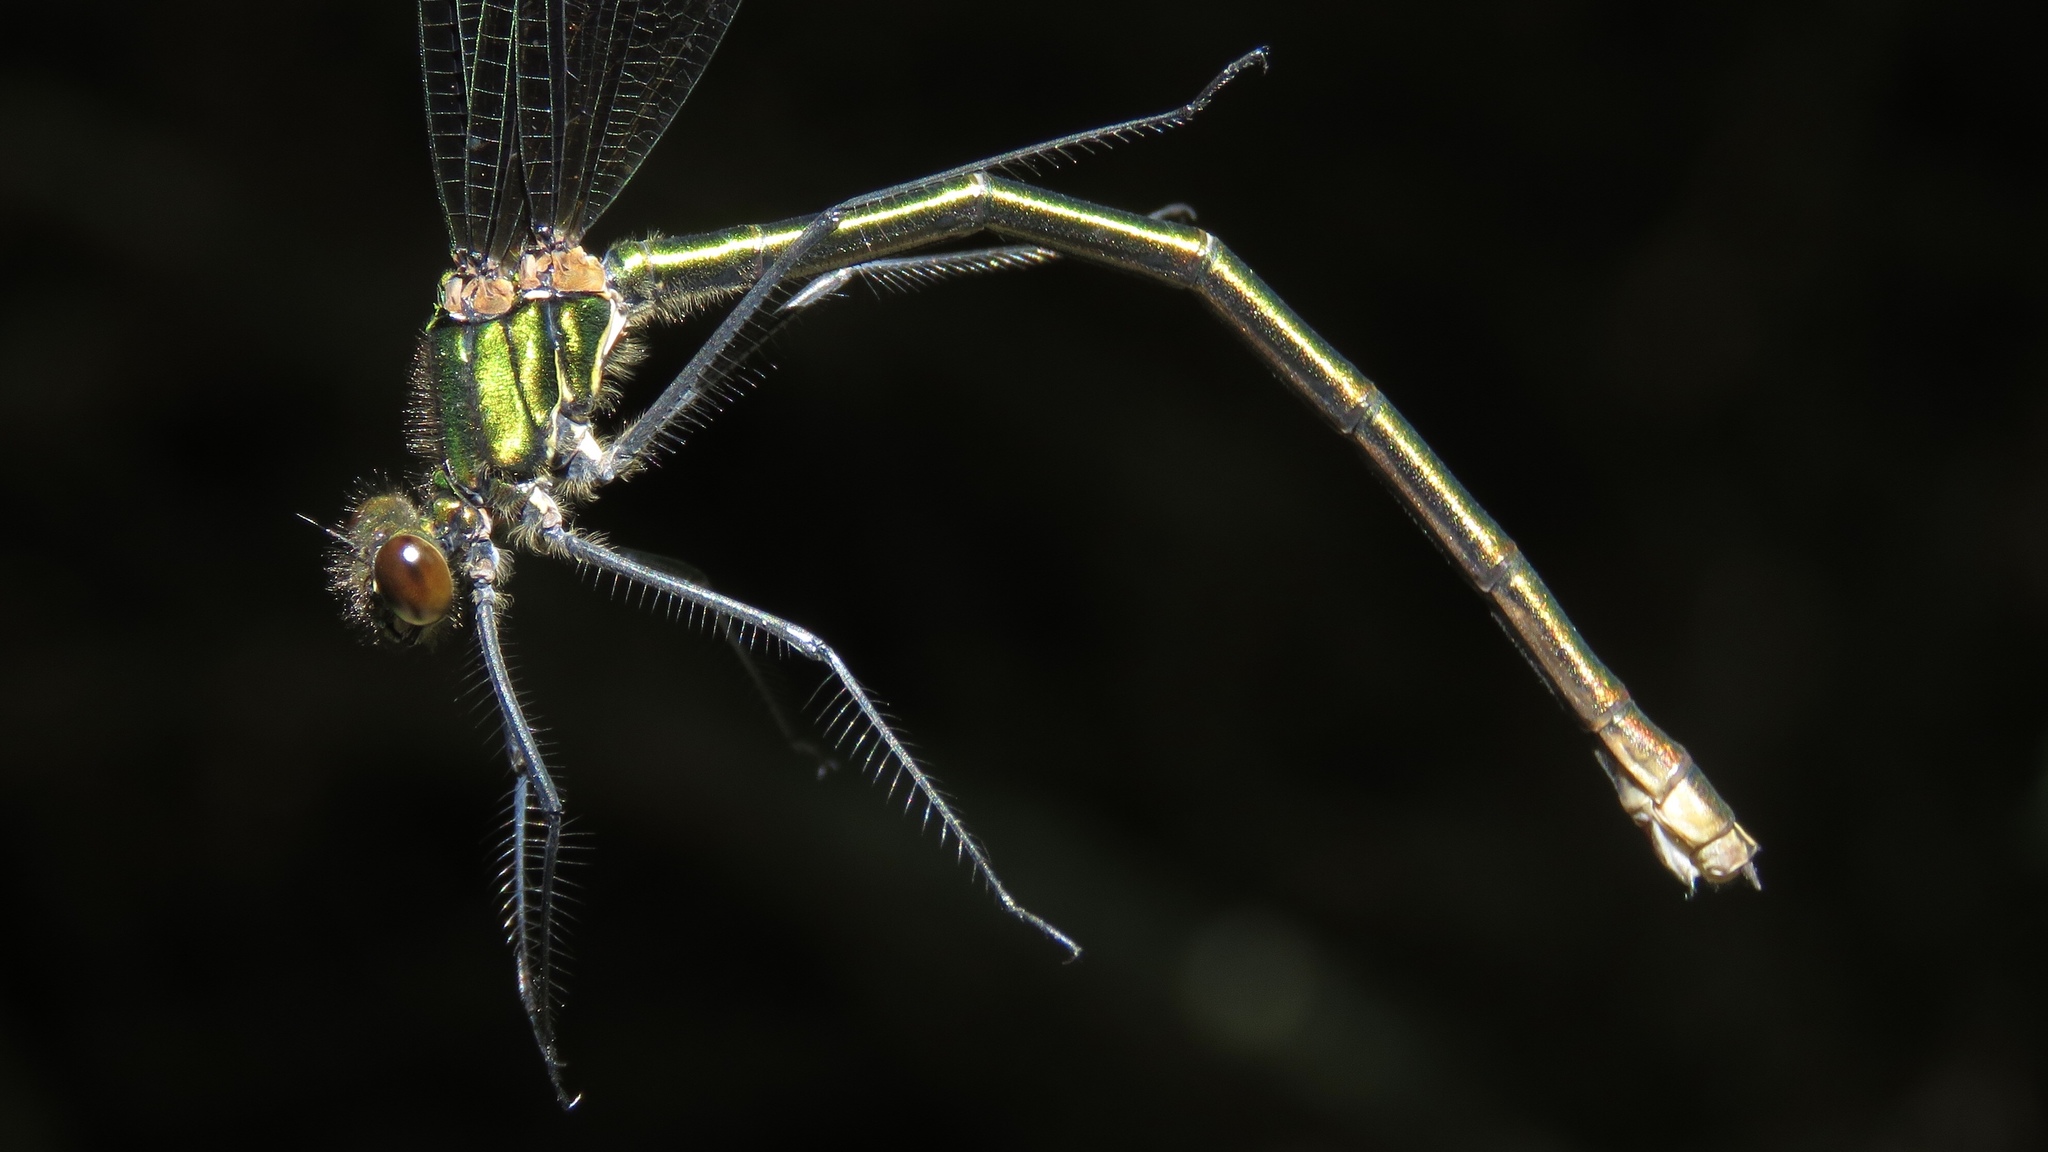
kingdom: Animalia
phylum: Arthropoda
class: Insecta
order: Odonata
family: Calopterygidae
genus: Calopteryx
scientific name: Calopteryx maculata
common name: Ebony jewelwing
